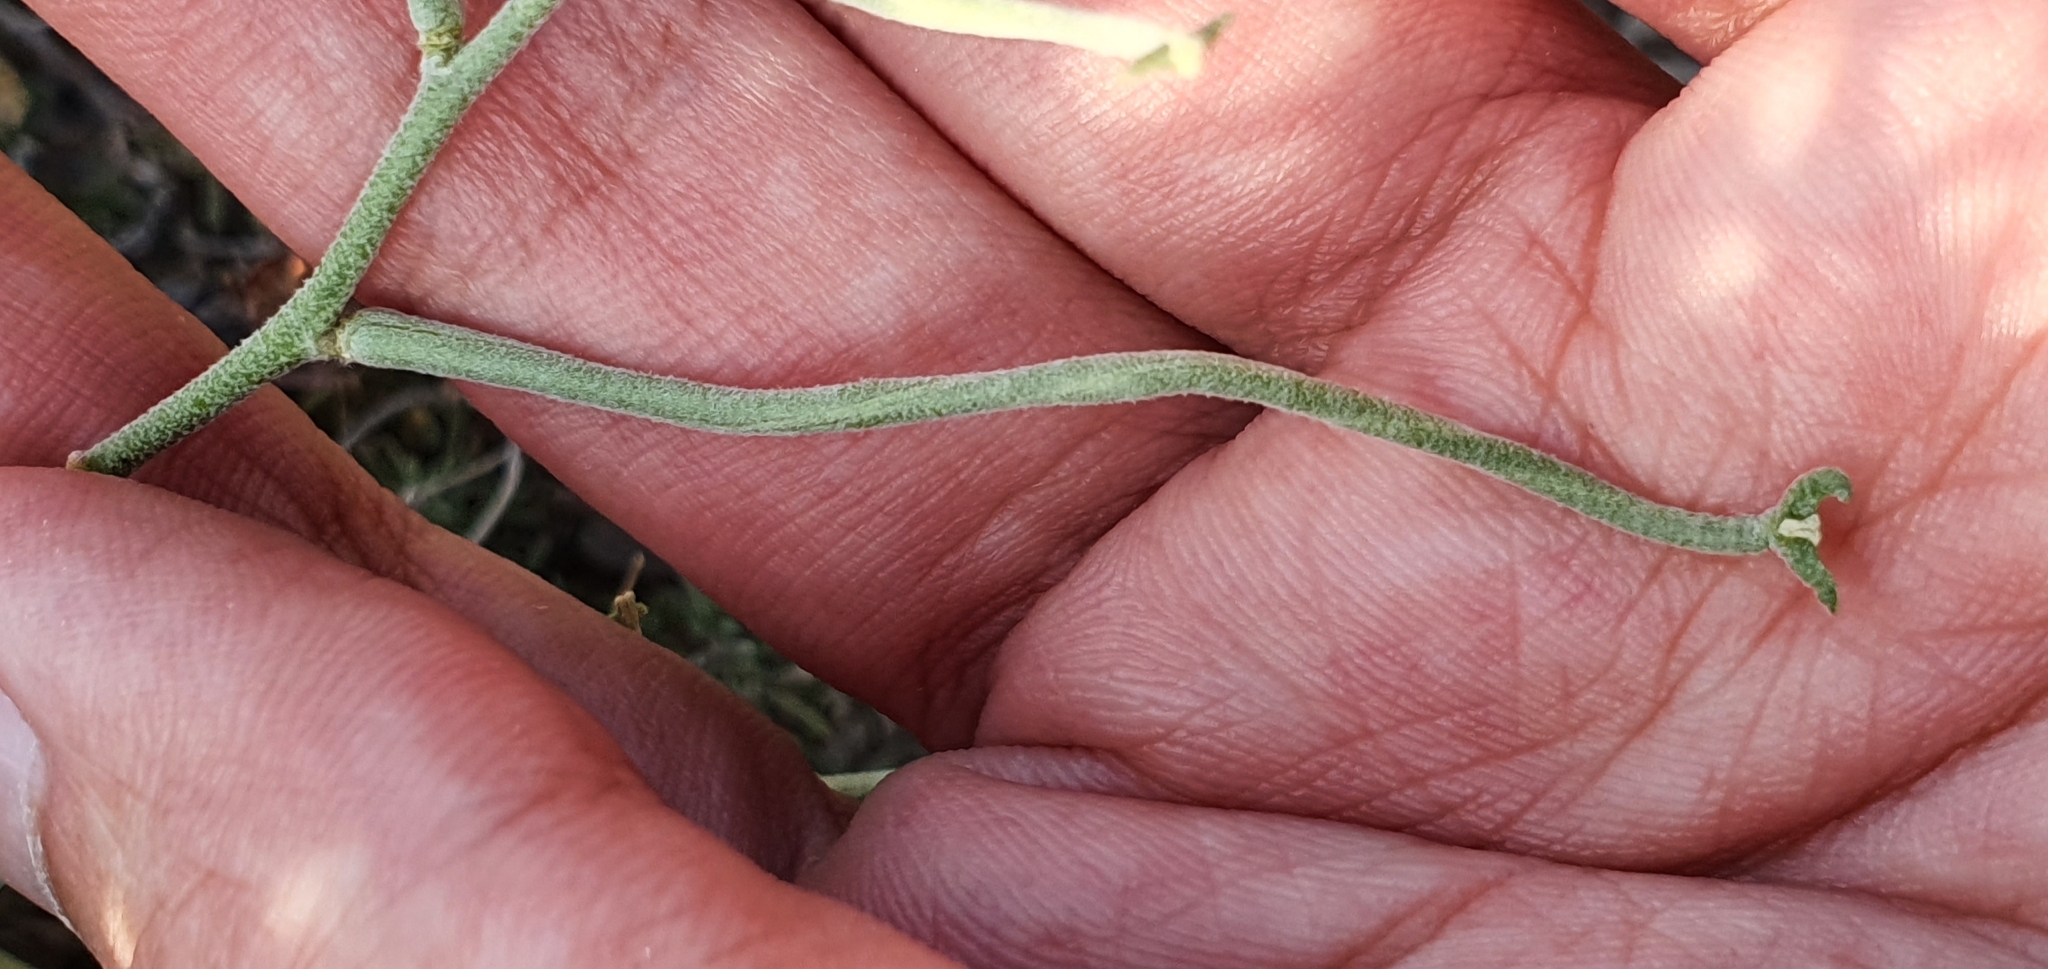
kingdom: Plantae
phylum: Tracheophyta
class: Magnoliopsida
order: Brassicales
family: Brassicaceae
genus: Matthiola
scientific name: Matthiola fruticulosa
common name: Sad stock
